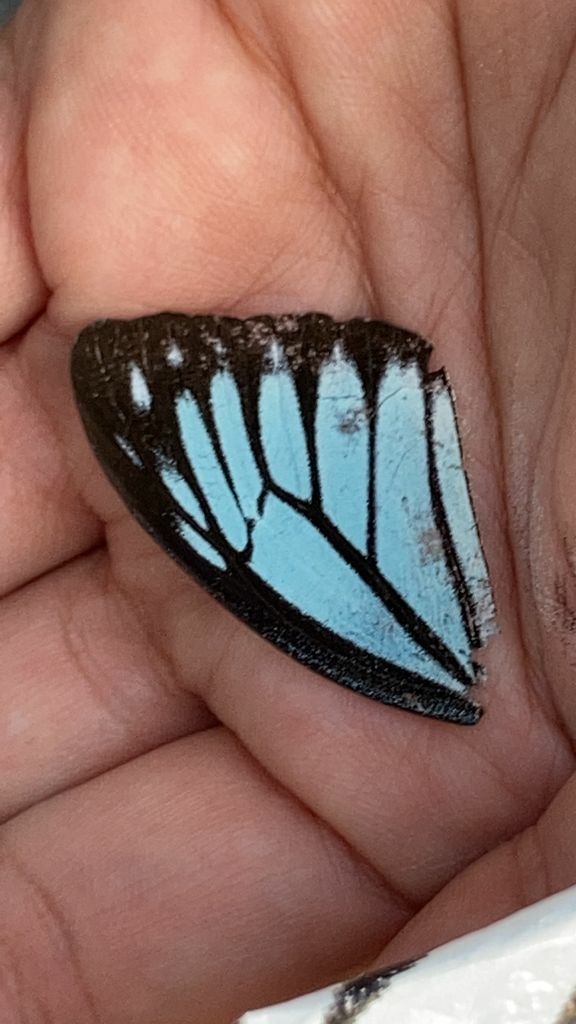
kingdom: Animalia
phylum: Arthropoda
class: Insecta
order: Lepidoptera
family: Pieridae
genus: Pareronia
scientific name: Pareronia hippia
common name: Indian wanderer
